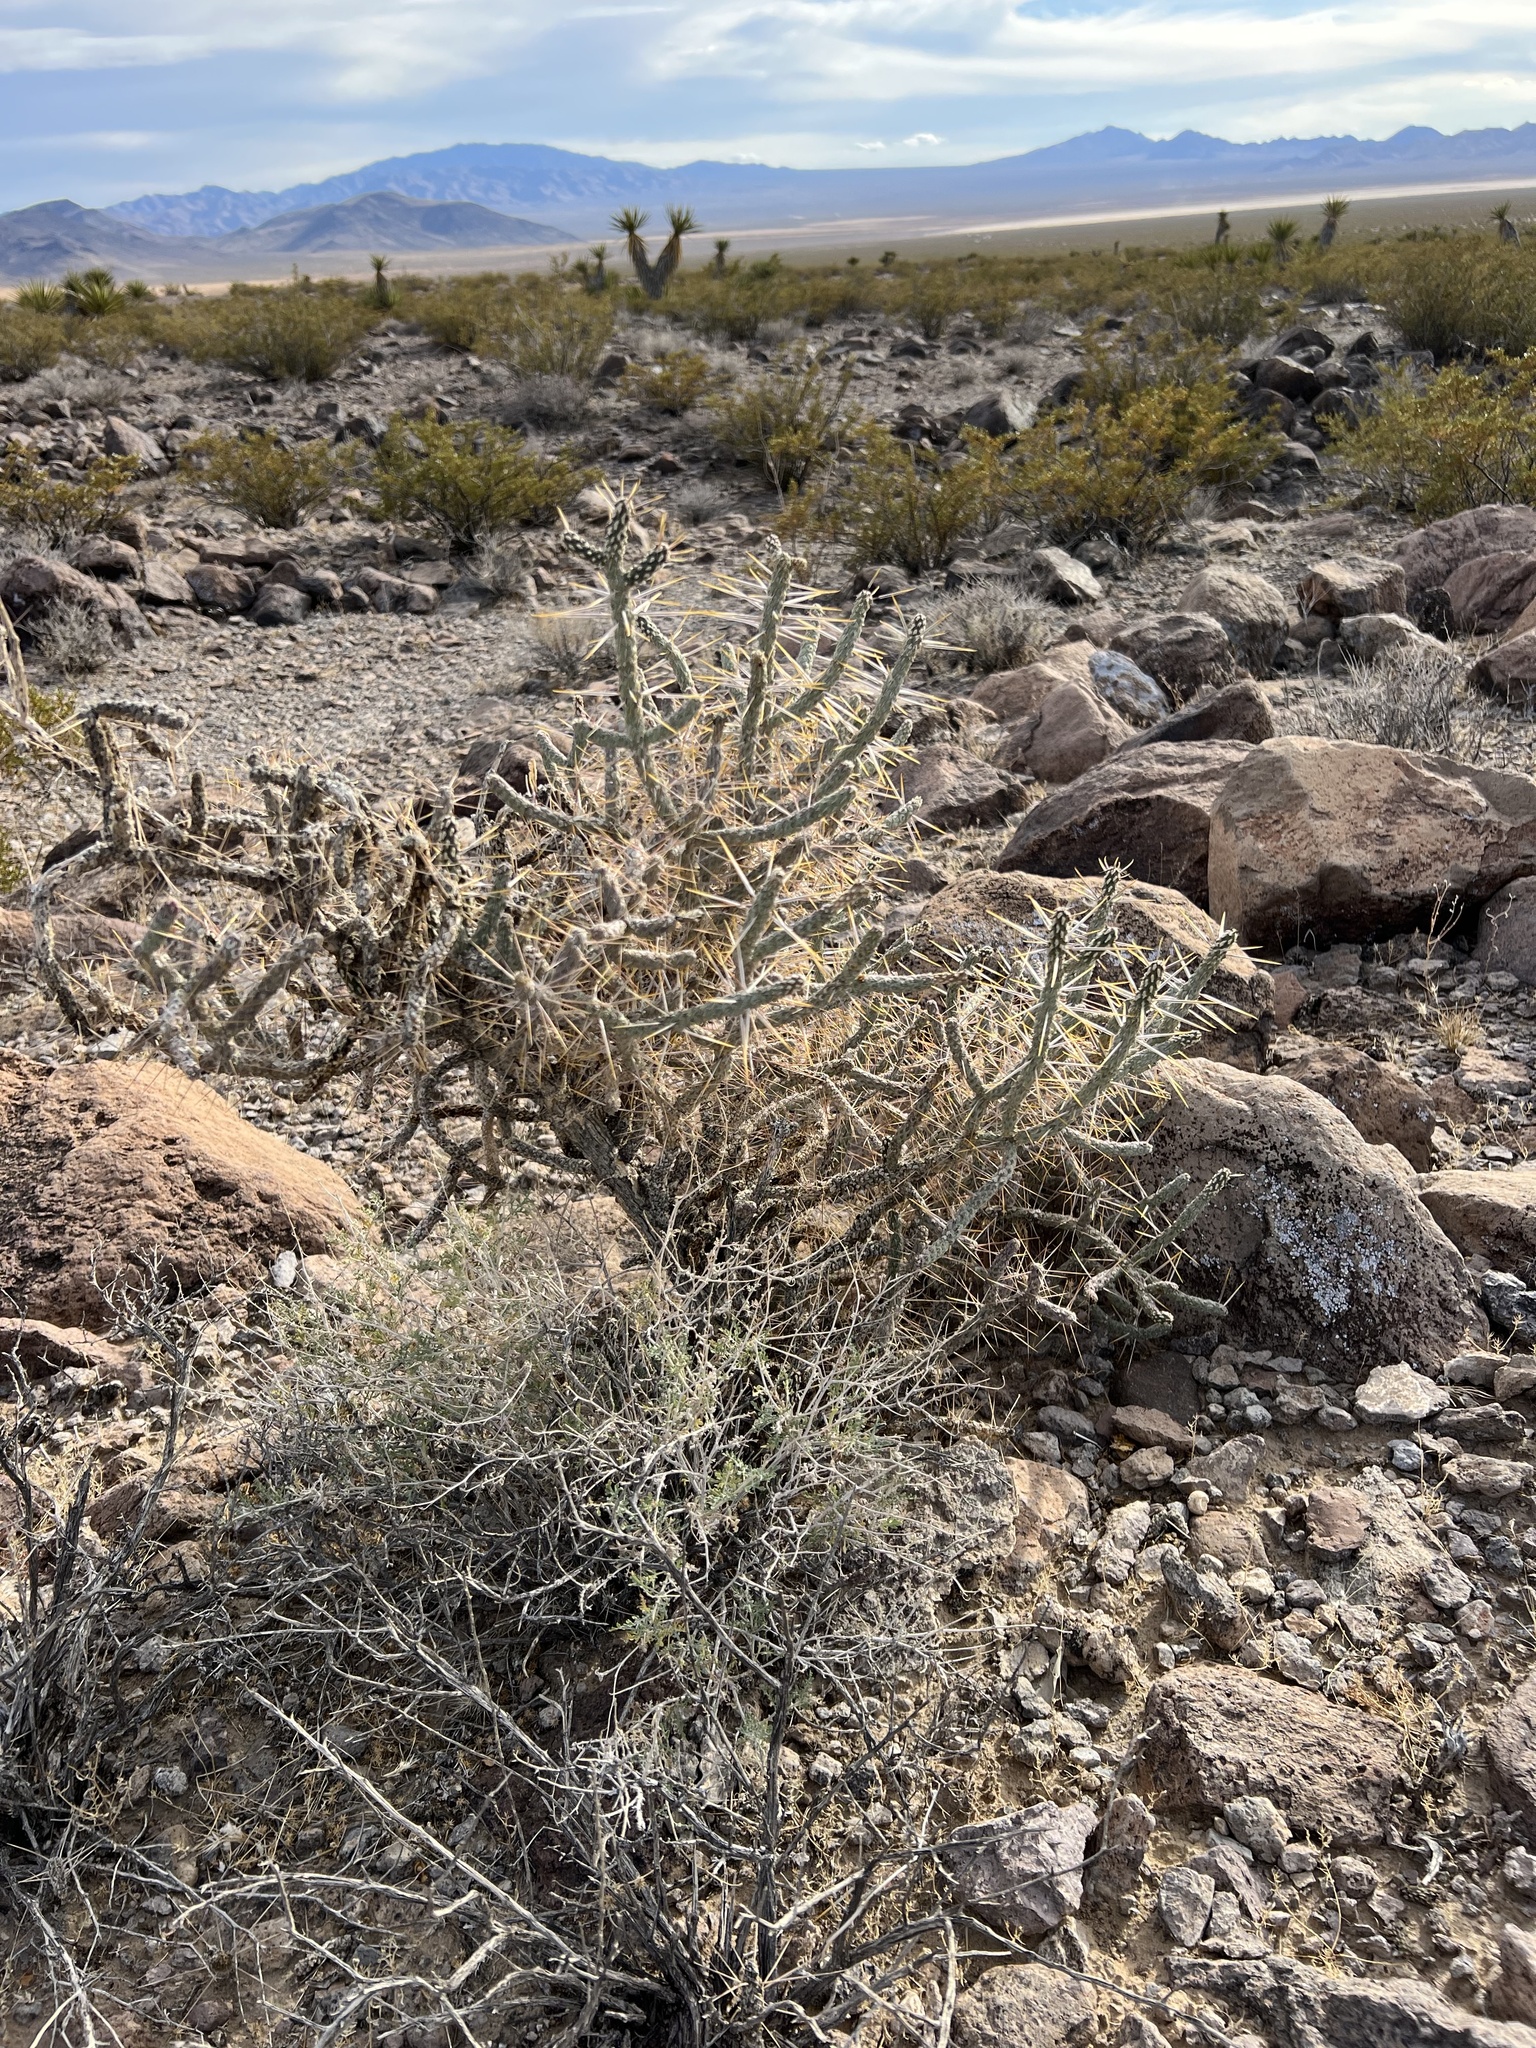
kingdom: Plantae
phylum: Tracheophyta
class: Magnoliopsida
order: Caryophyllales
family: Cactaceae
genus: Cylindropuntia
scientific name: Cylindropuntia ramosissima
